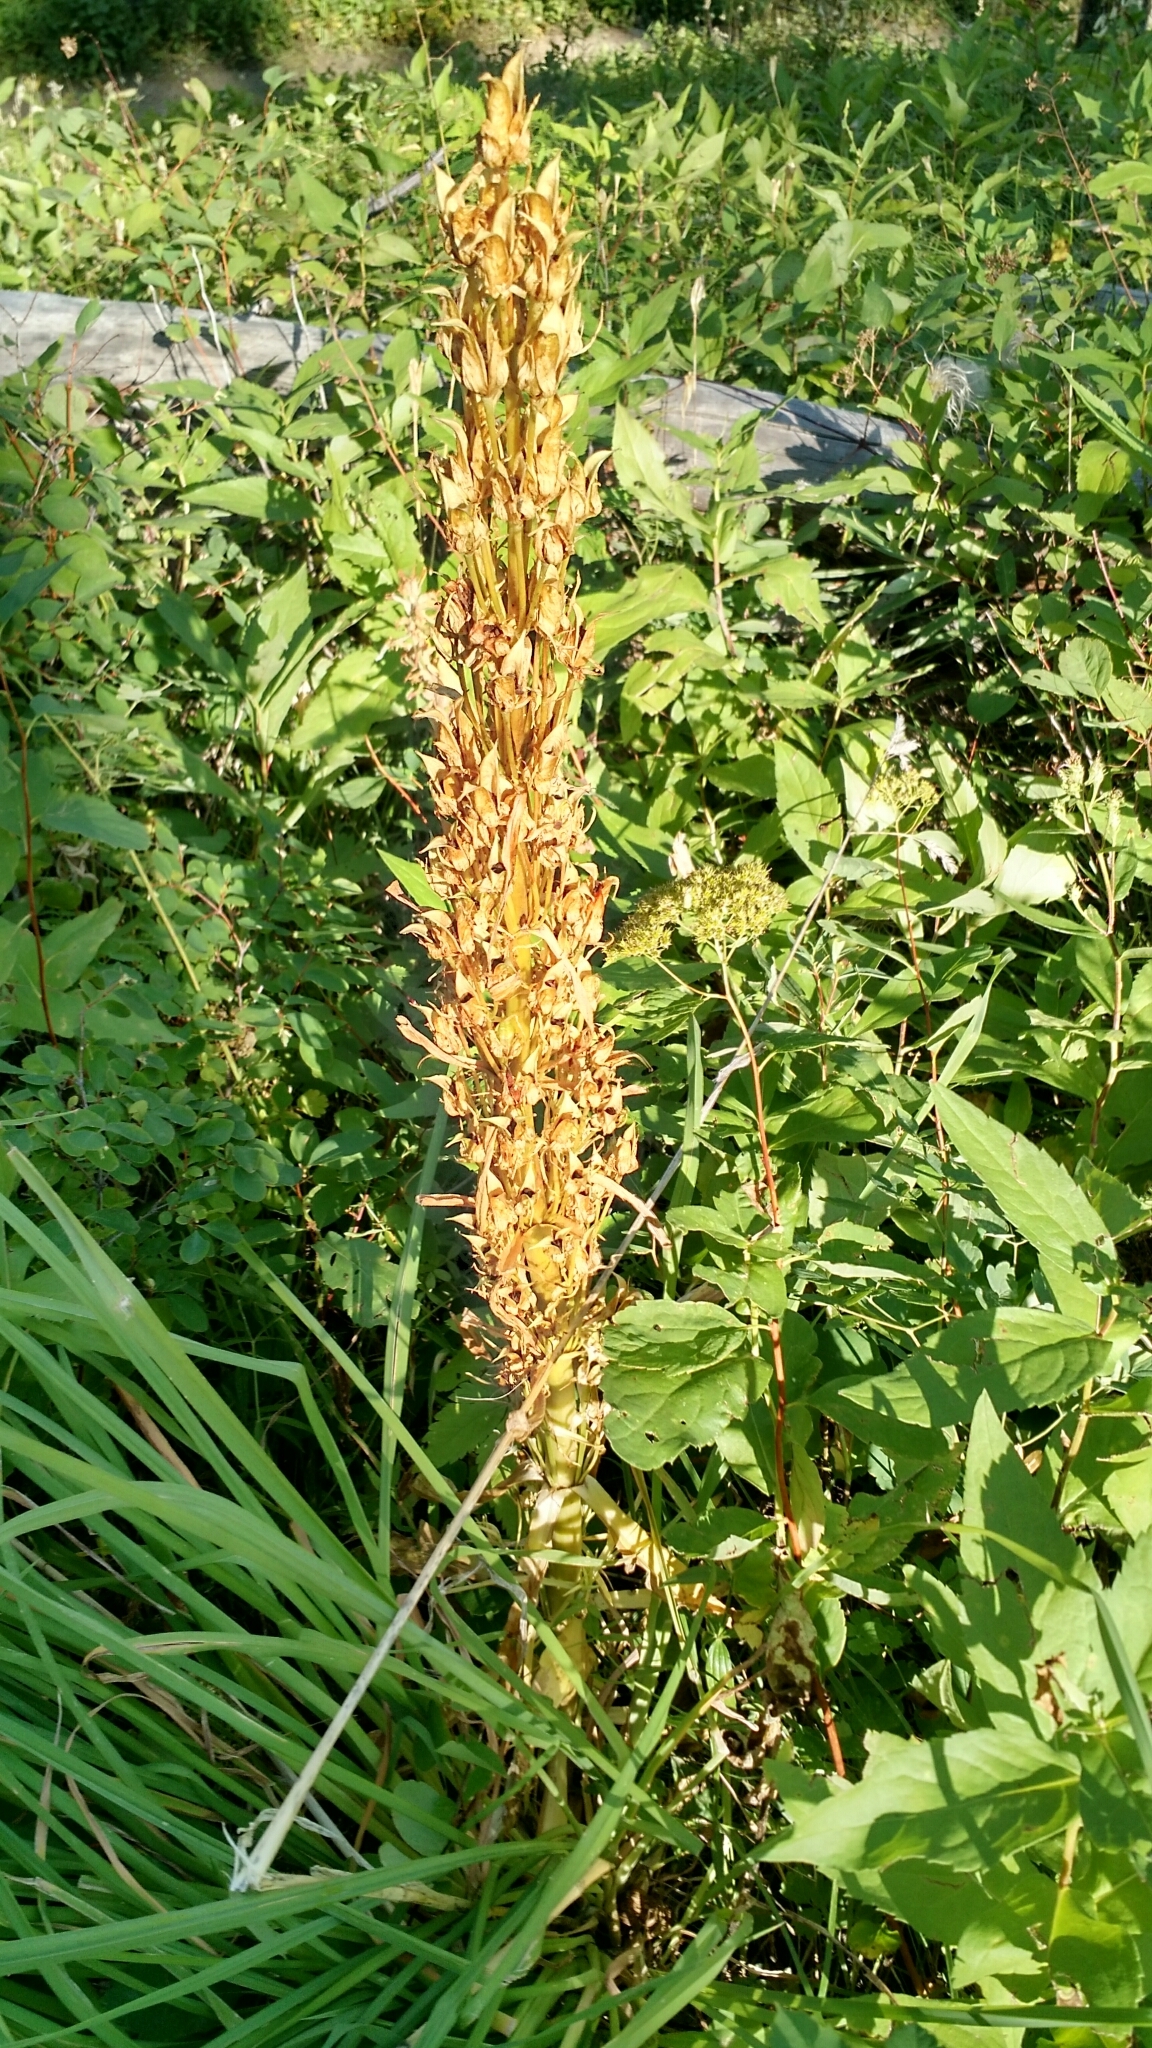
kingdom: Plantae
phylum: Tracheophyta
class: Magnoliopsida
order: Gentianales
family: Gentianaceae
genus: Frasera
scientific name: Frasera speciosa
